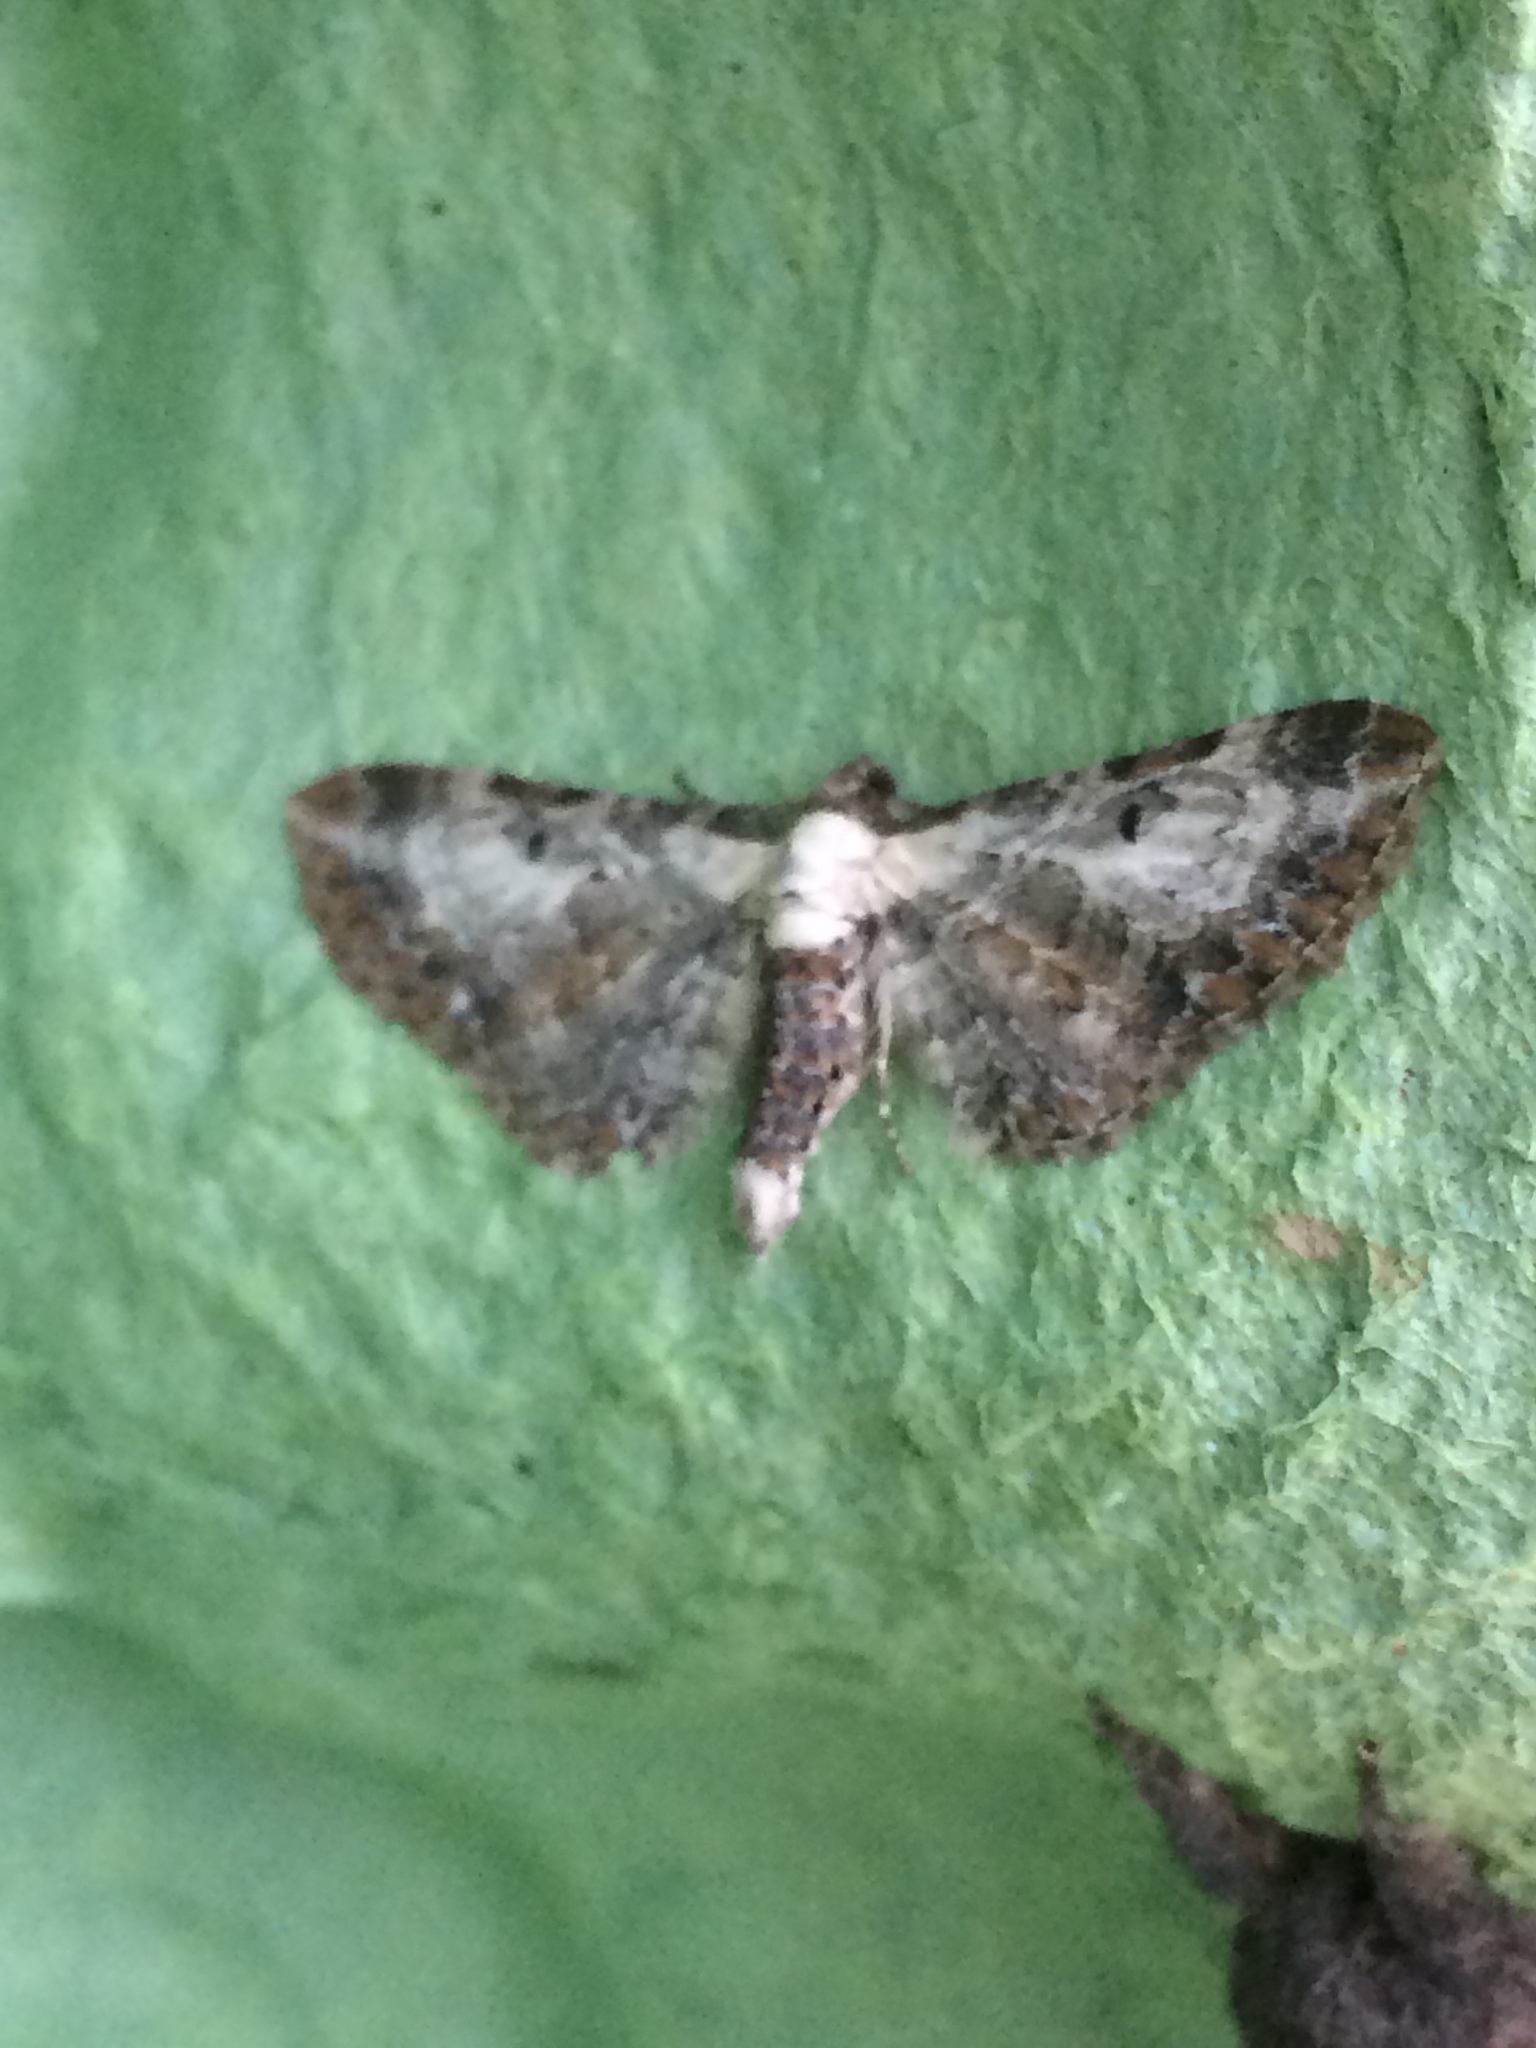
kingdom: Animalia
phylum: Arthropoda
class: Insecta
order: Lepidoptera
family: Geometridae
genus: Eupithecia
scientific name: Eupithecia succenturiata
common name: Bordered pug
